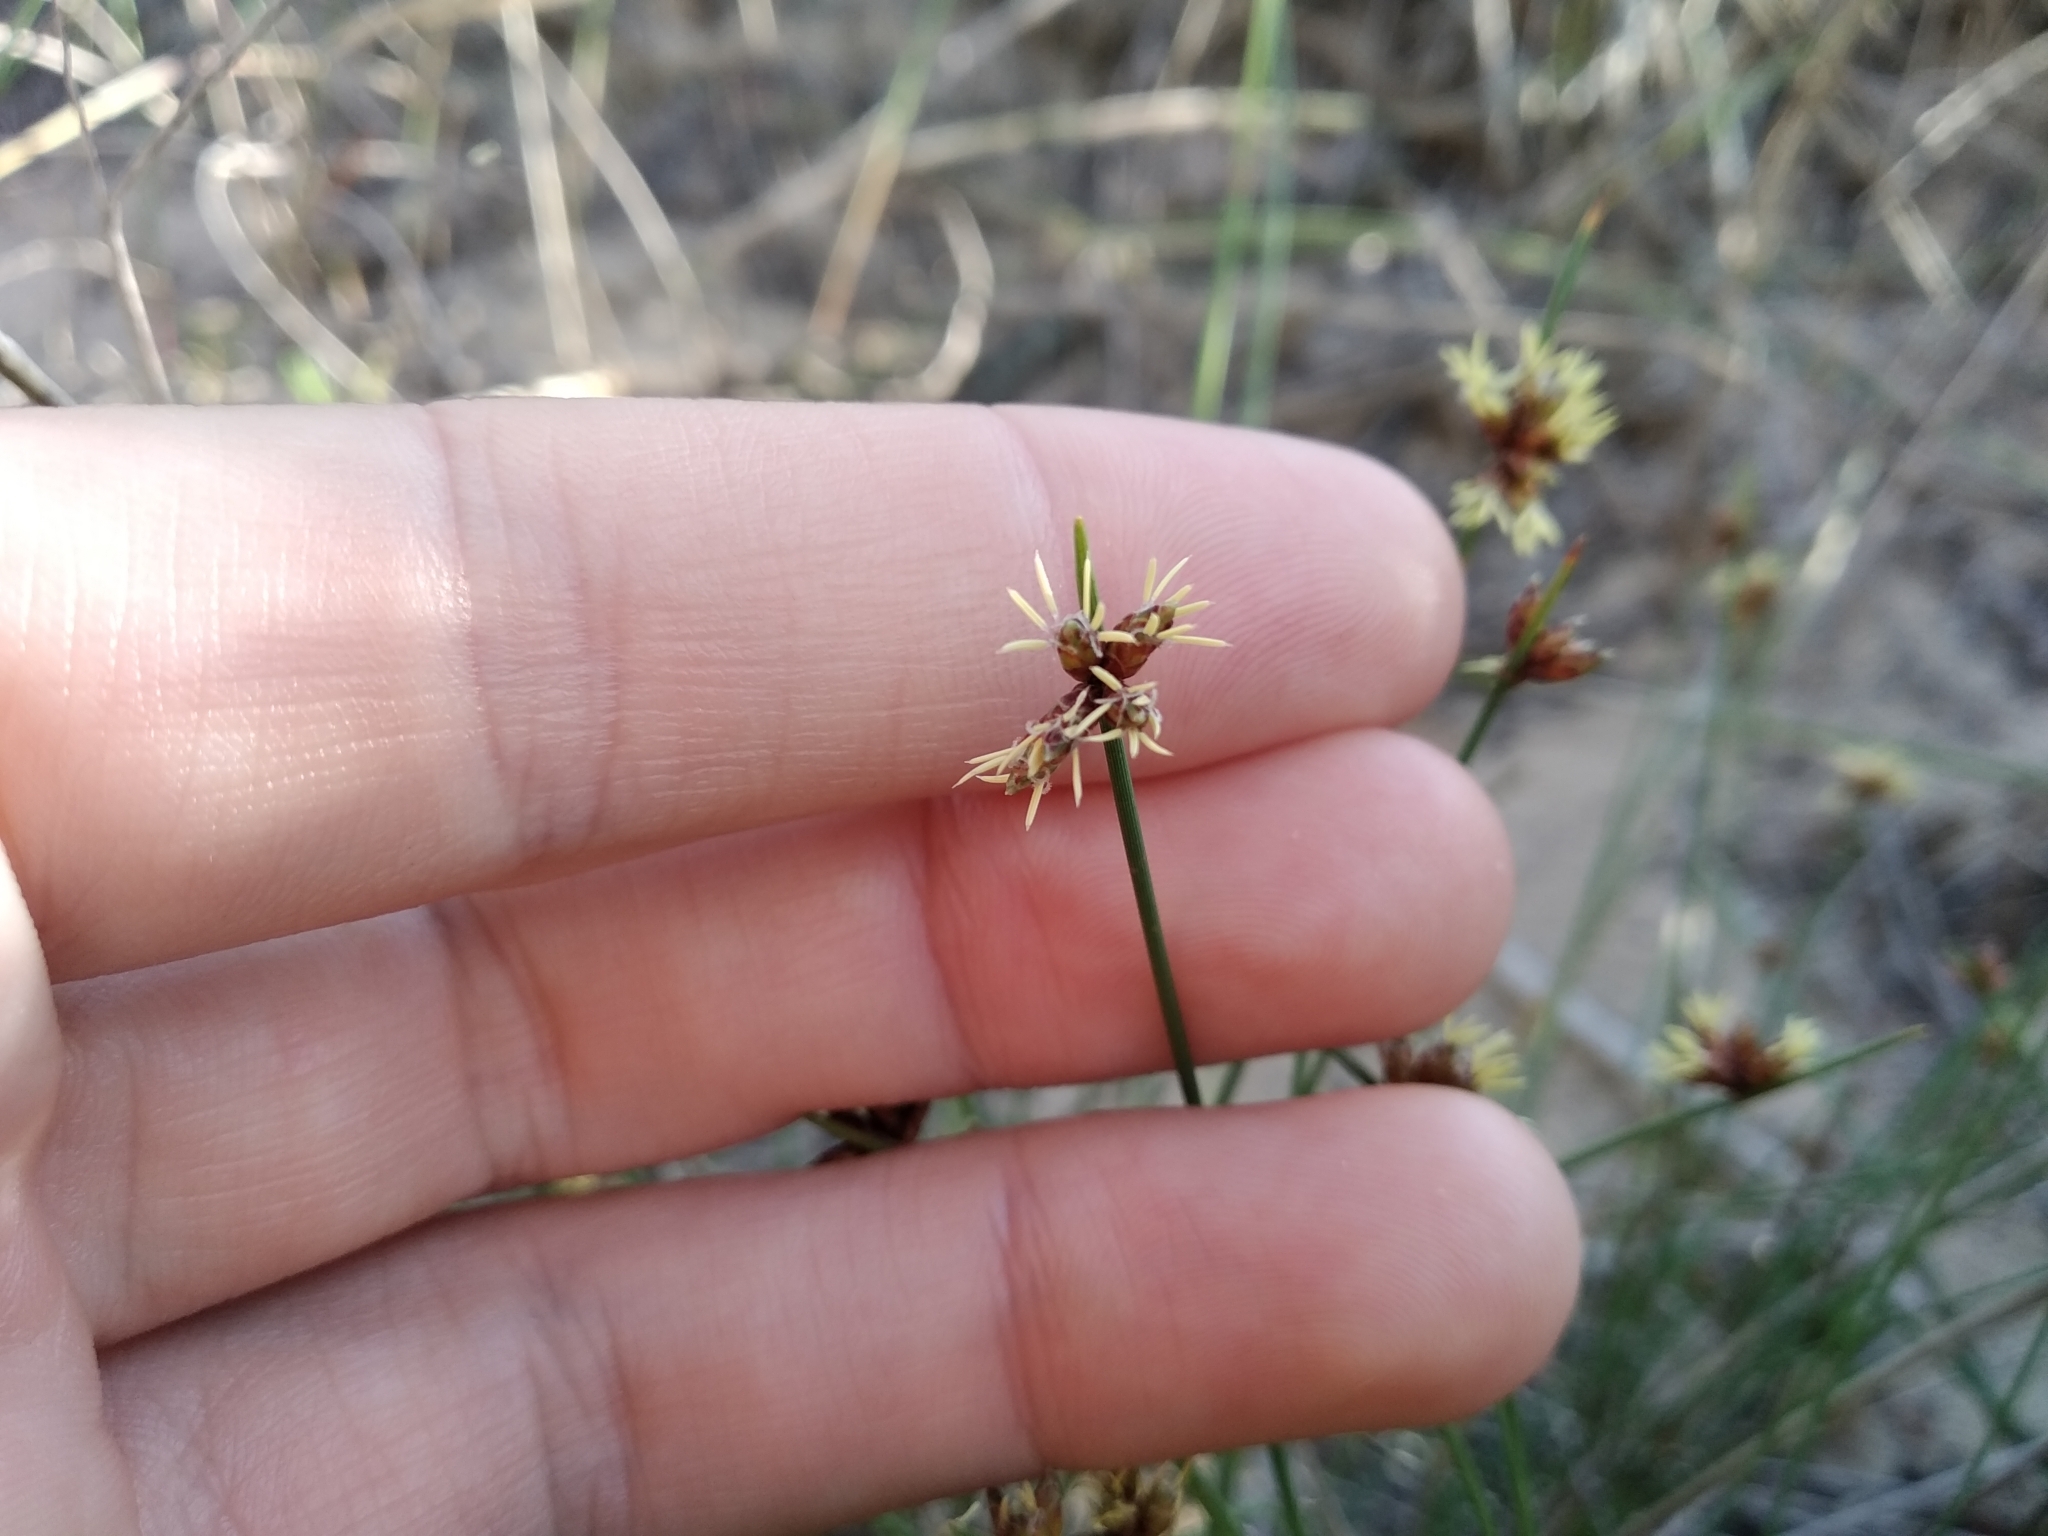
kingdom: Plantae
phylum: Tracheophyta
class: Liliopsida
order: Poales
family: Cyperaceae
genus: Ficinia
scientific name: Ficinia lateralis
